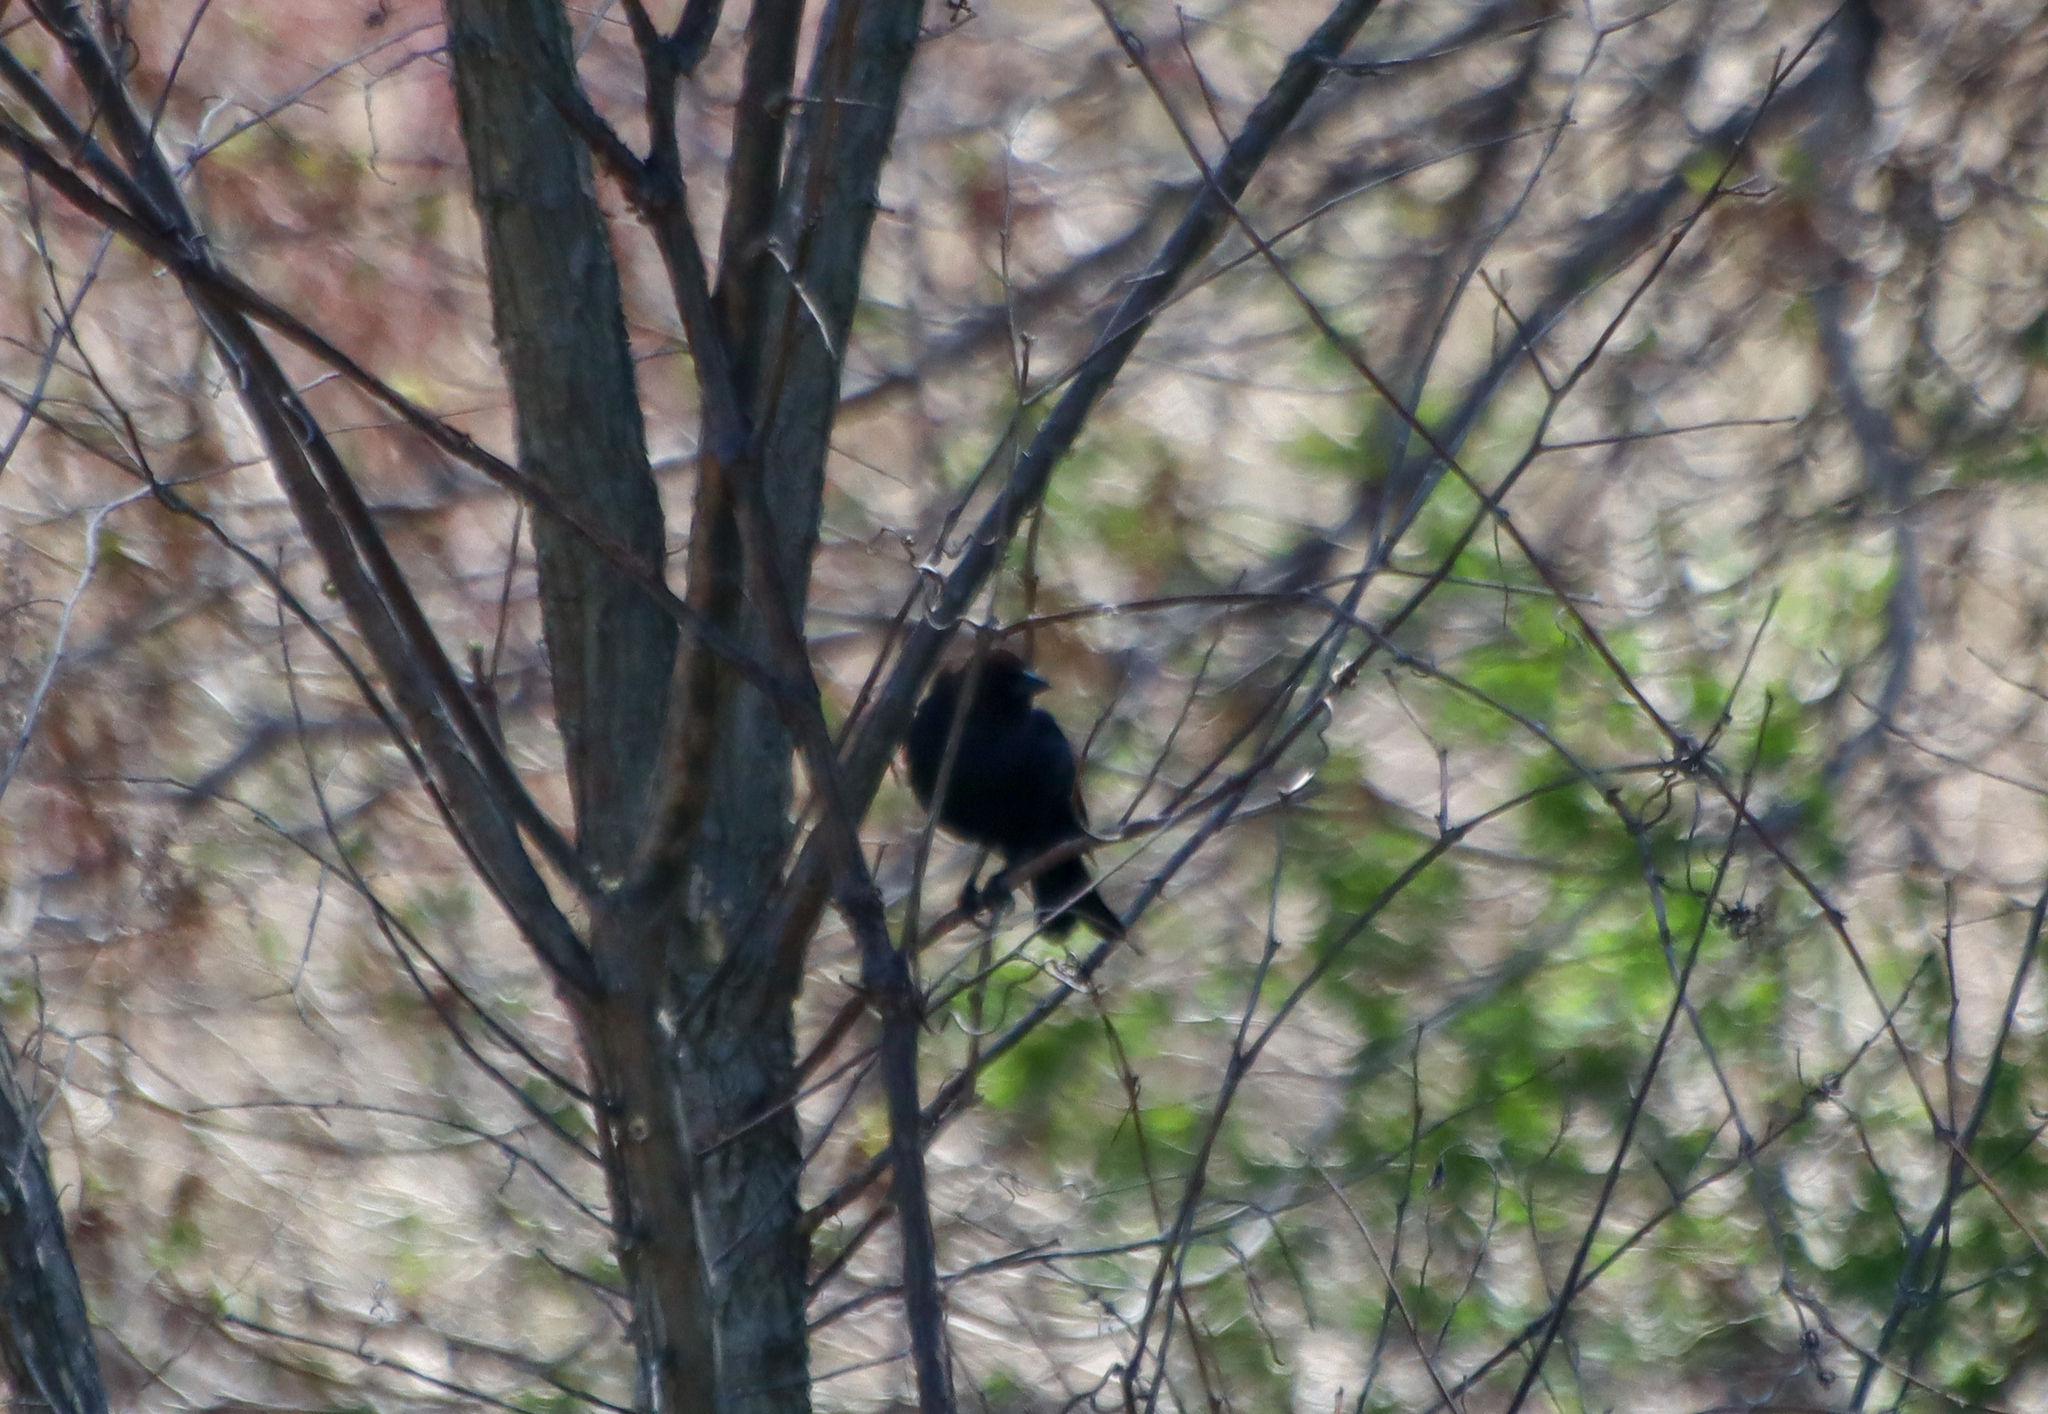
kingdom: Animalia
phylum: Chordata
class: Aves
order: Passeriformes
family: Icteridae
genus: Agelaius
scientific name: Agelaius phoeniceus
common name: Red-winged blackbird
